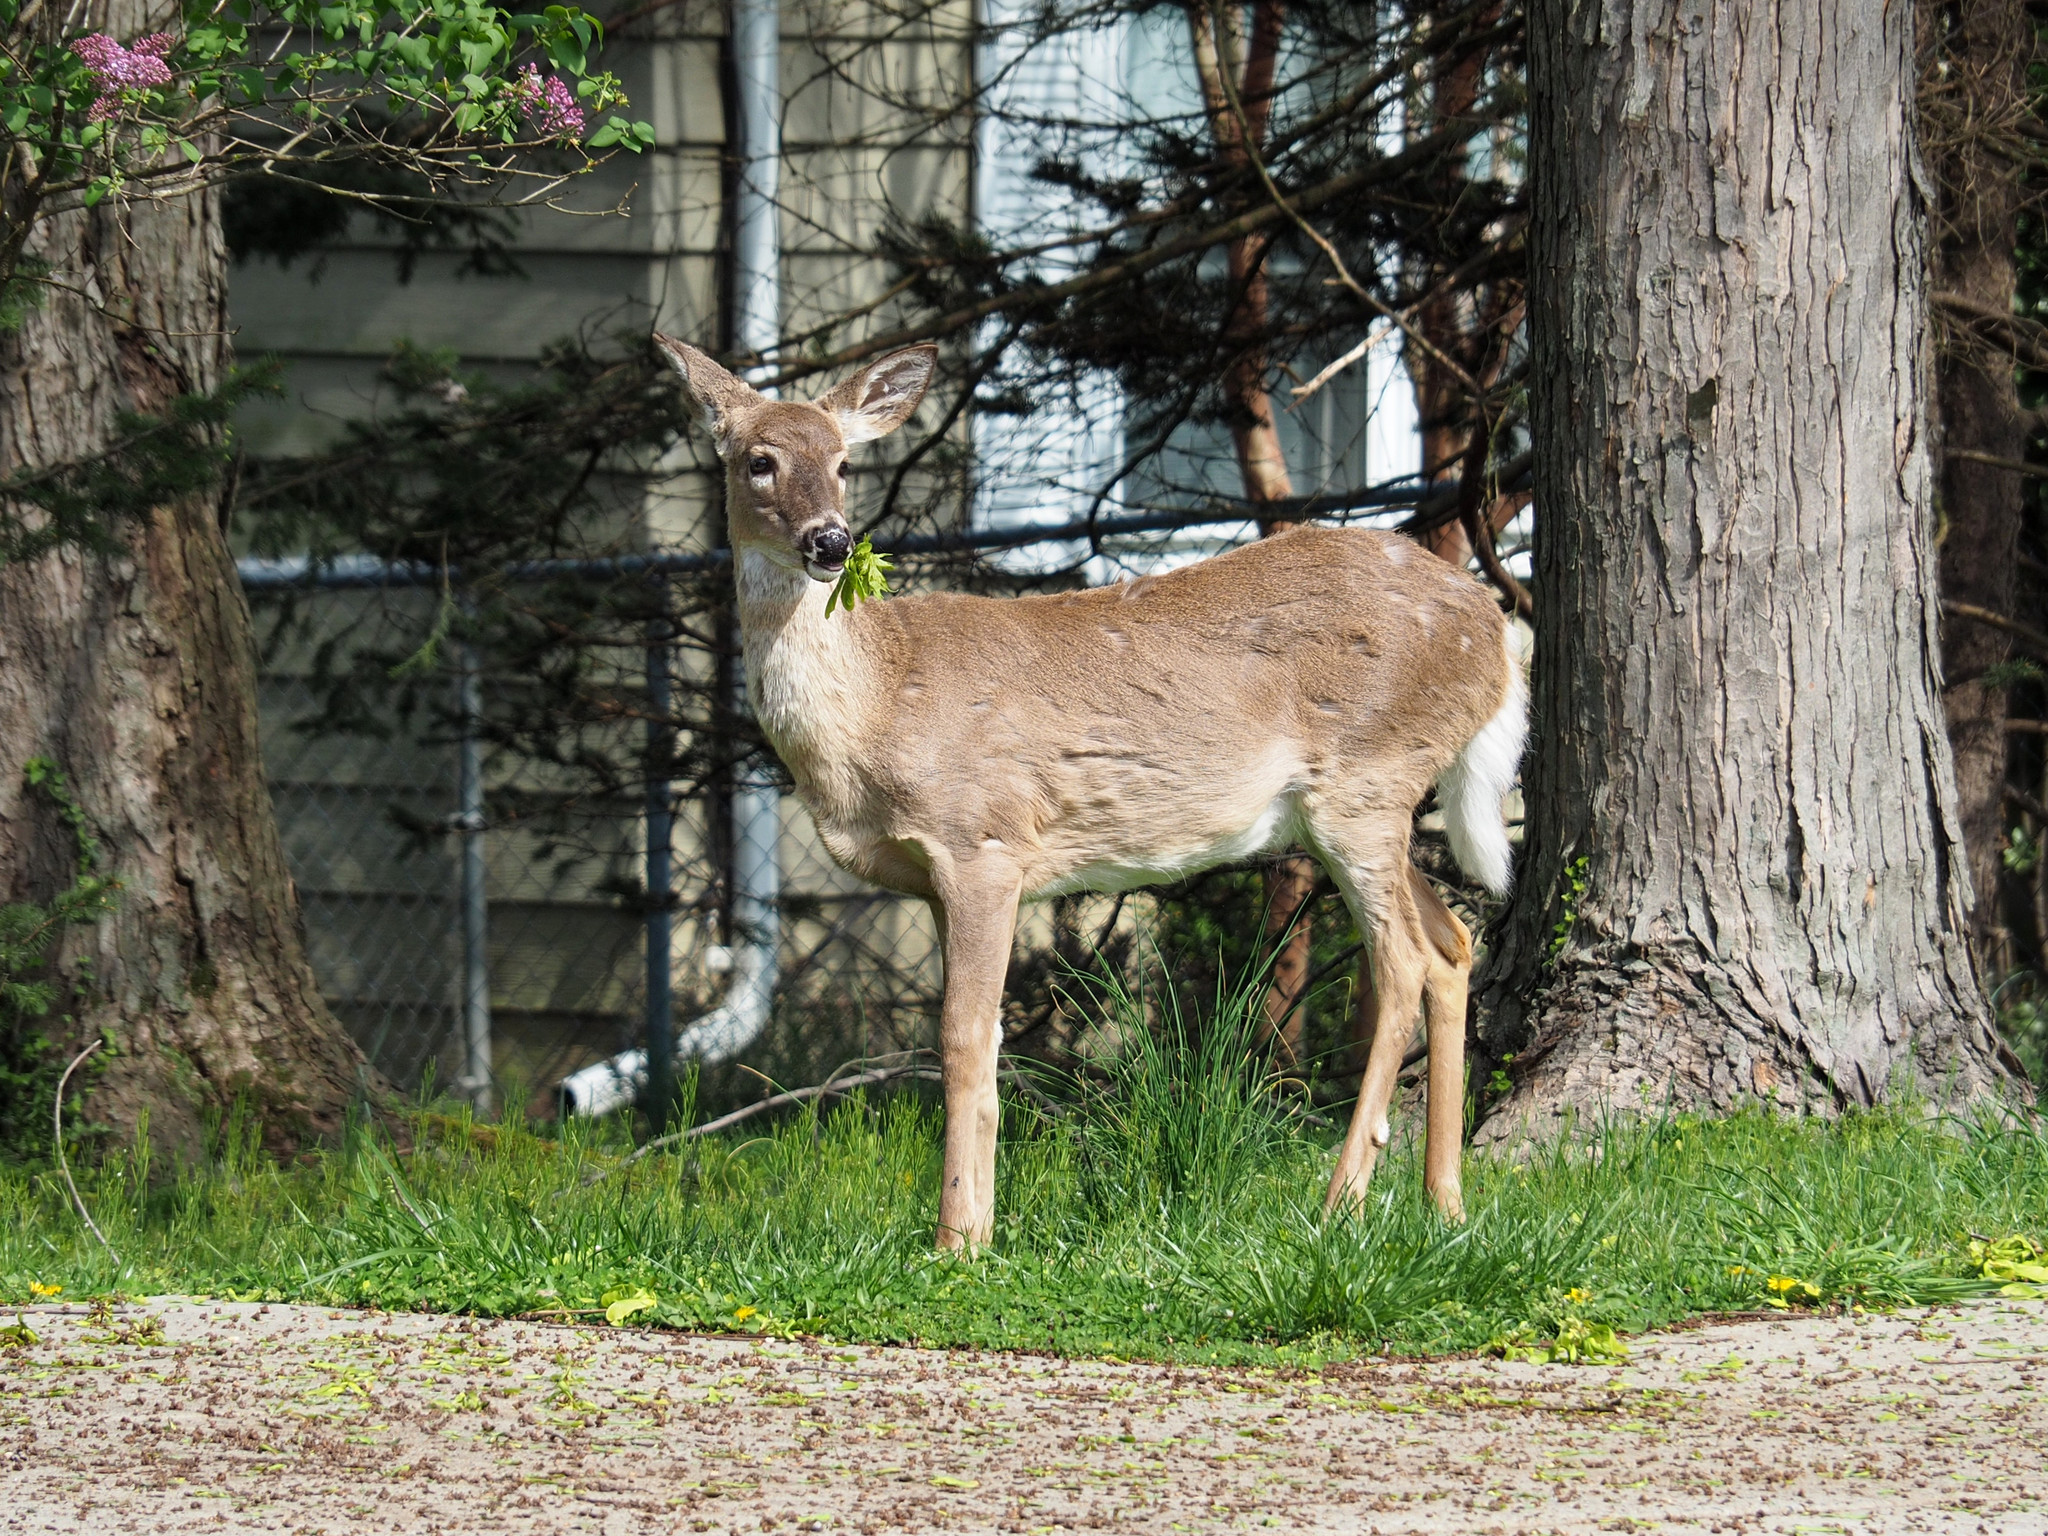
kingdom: Animalia
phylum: Chordata
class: Mammalia
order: Artiodactyla
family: Cervidae
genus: Odocoileus
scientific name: Odocoileus virginianus
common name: White-tailed deer
